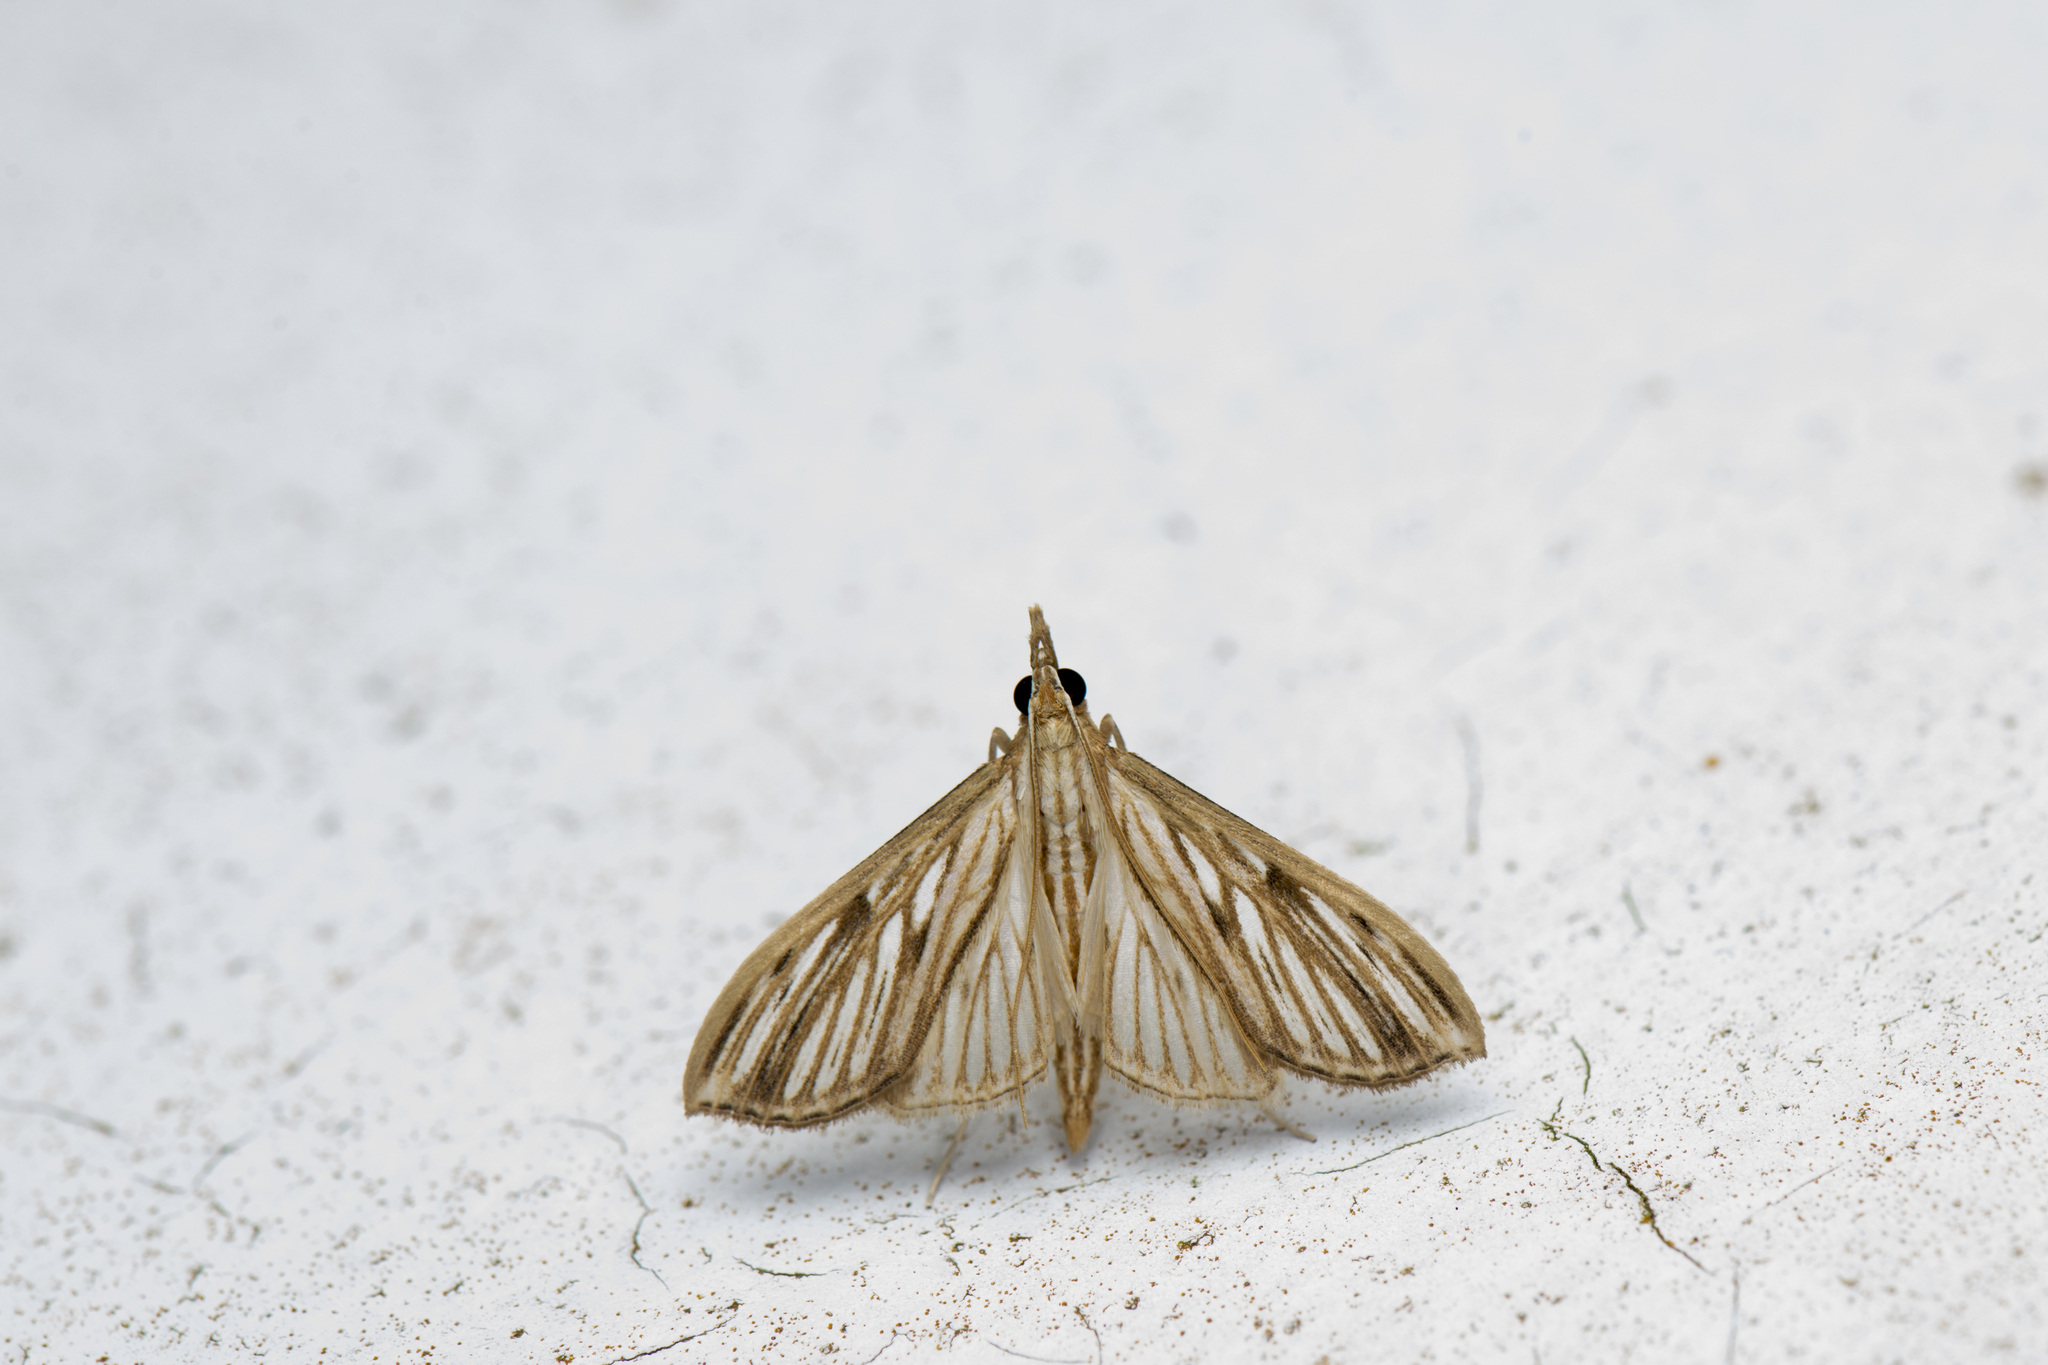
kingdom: Animalia
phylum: Arthropoda
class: Insecta
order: Lepidoptera
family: Crambidae
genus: Antigastra
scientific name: Antigastra catalaunalis
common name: Spanish dot
